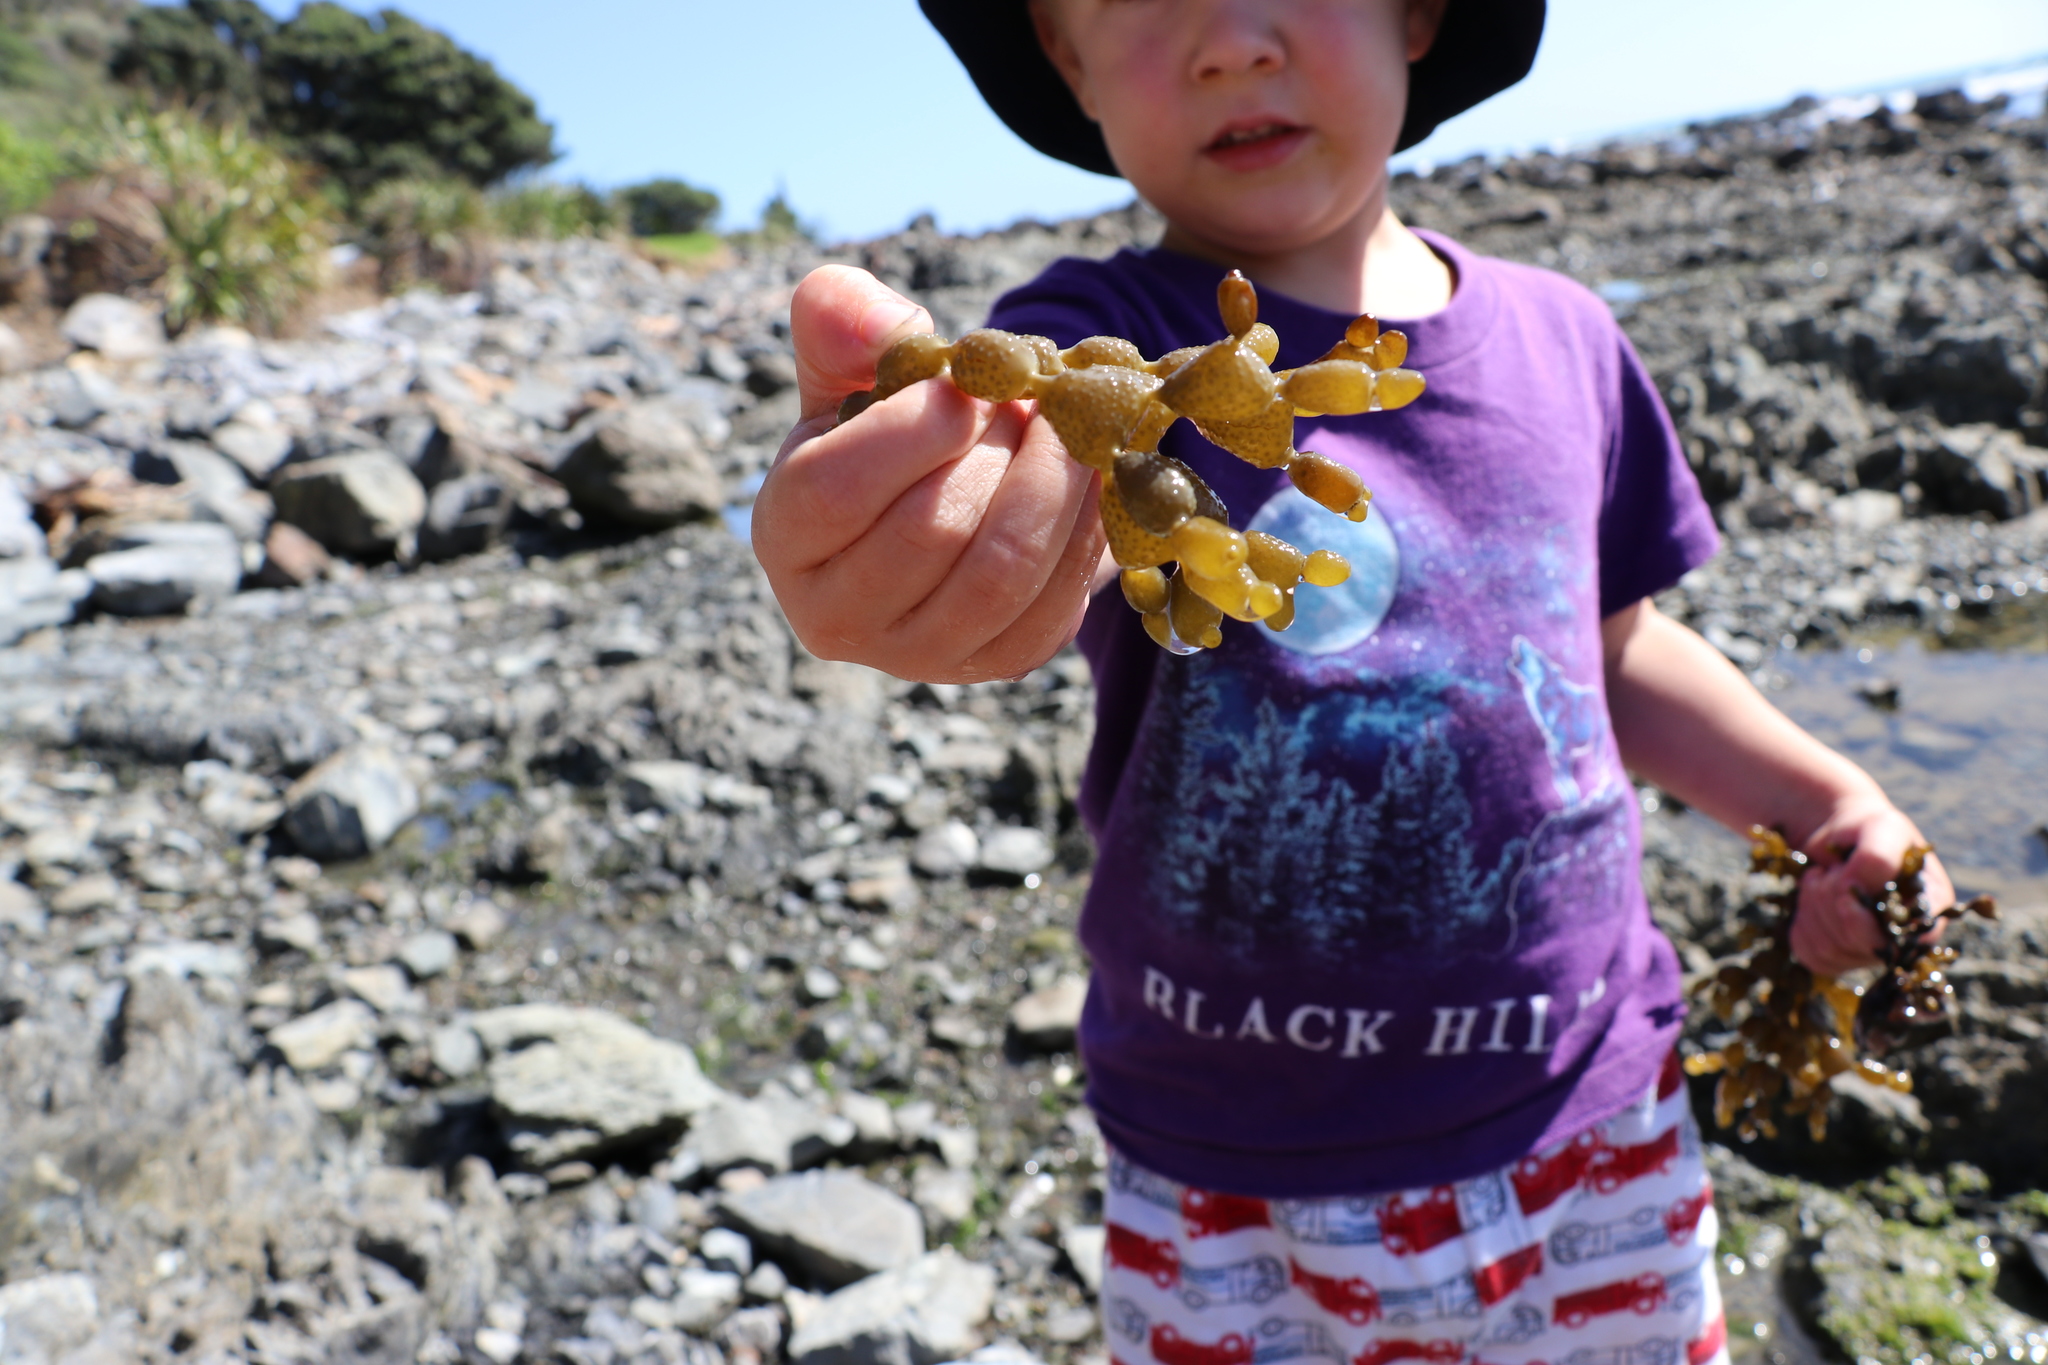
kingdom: Chromista
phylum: Ochrophyta
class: Phaeophyceae
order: Fucales
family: Hormosiraceae
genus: Hormosira
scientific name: Hormosira banksii
